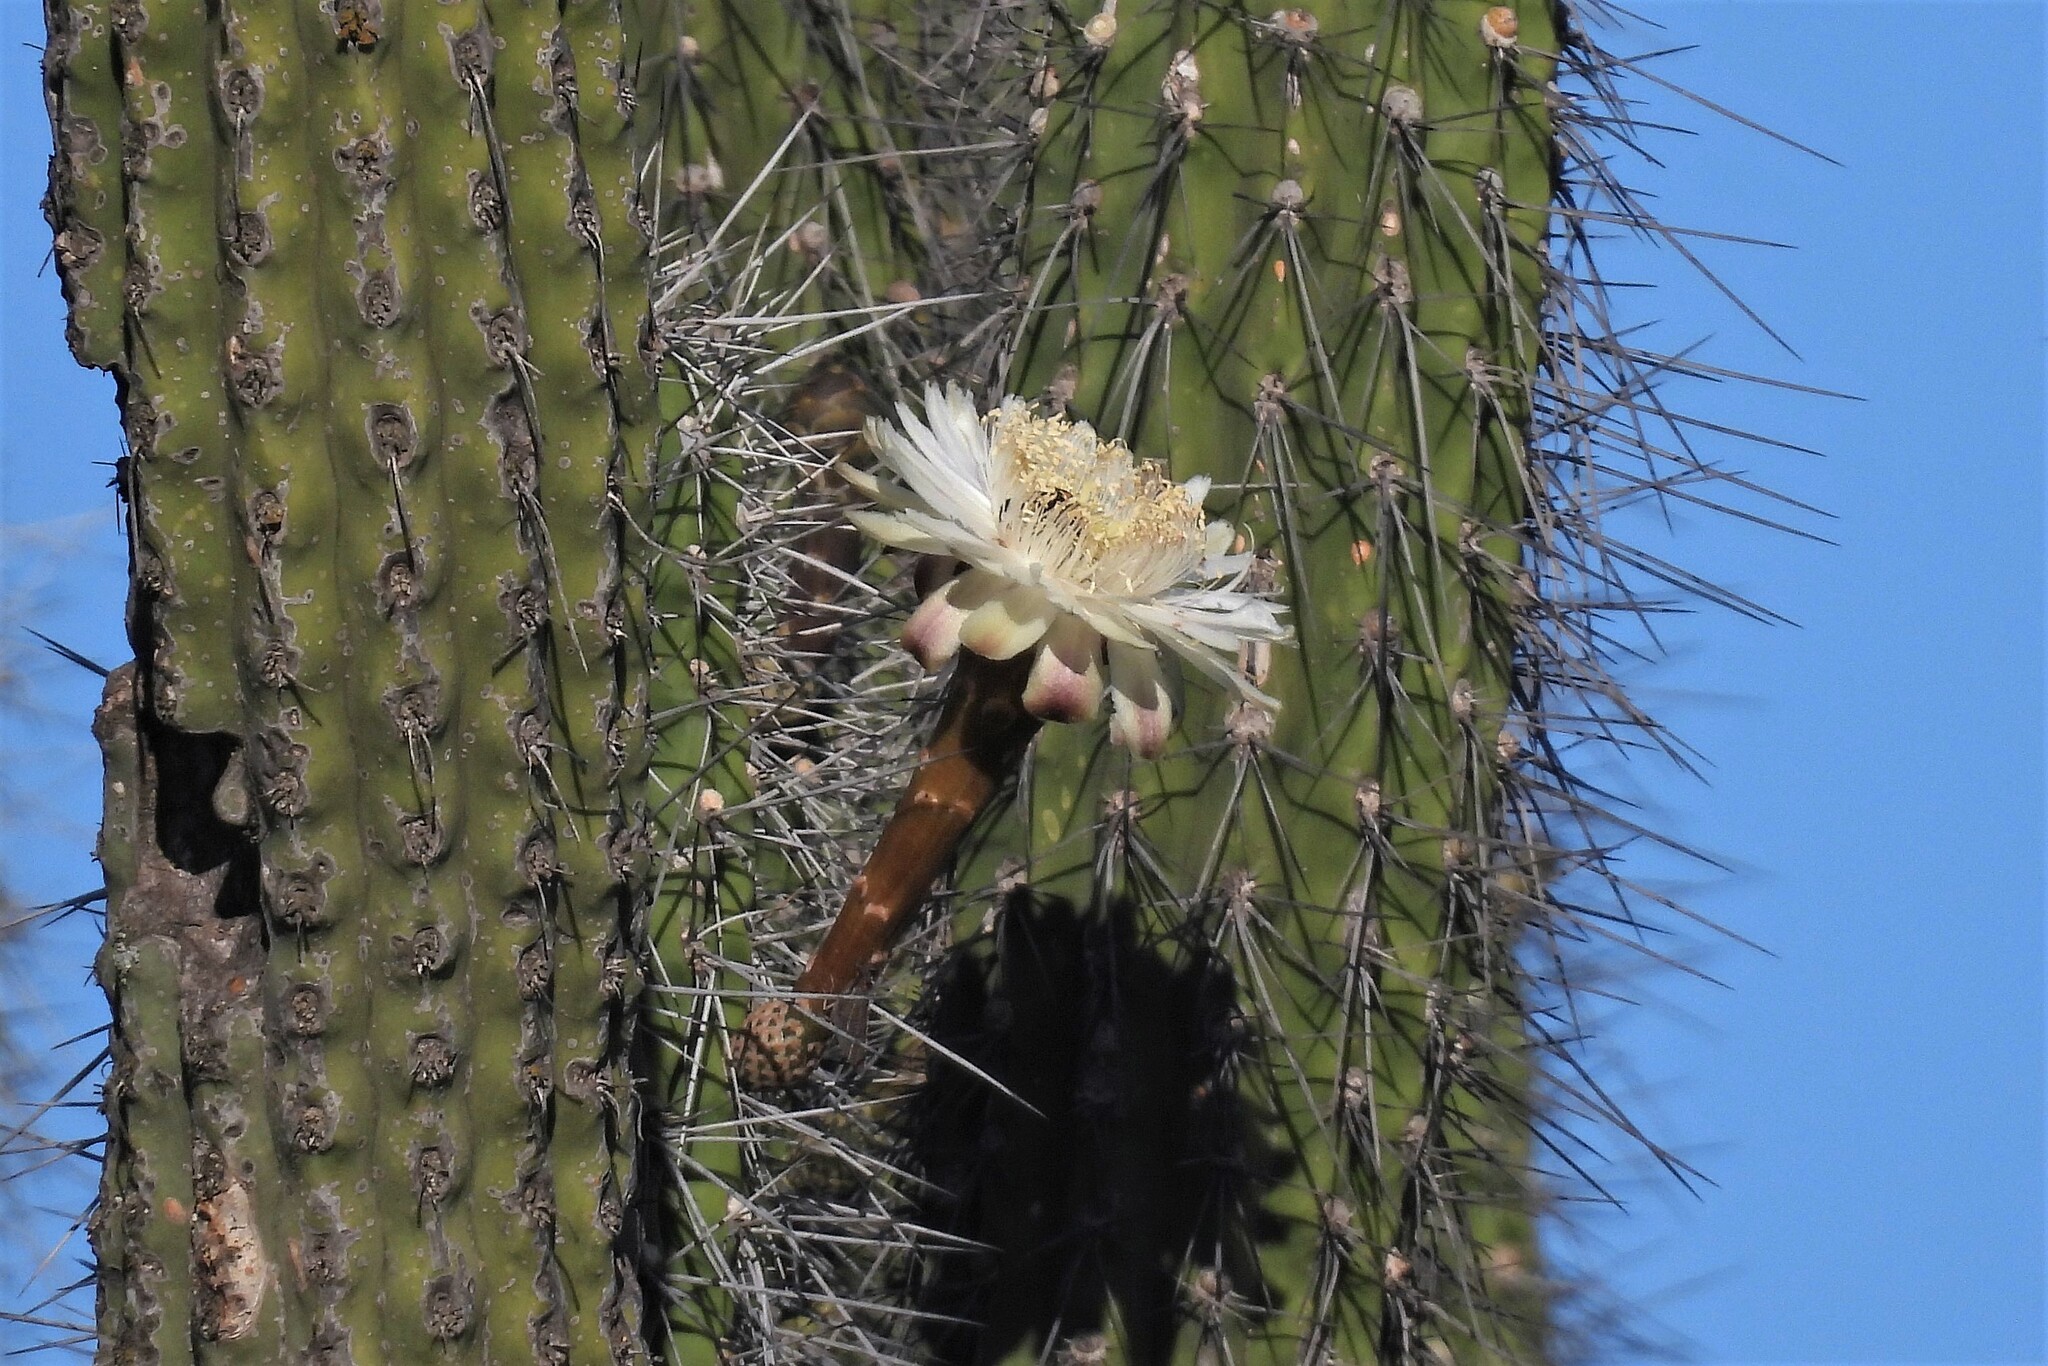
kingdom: Plantae
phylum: Tracheophyta
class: Magnoliopsida
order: Caryophyllales
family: Cactaceae
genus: Stetsonia
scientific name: Stetsonia coryne
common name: Toothpick cactus
